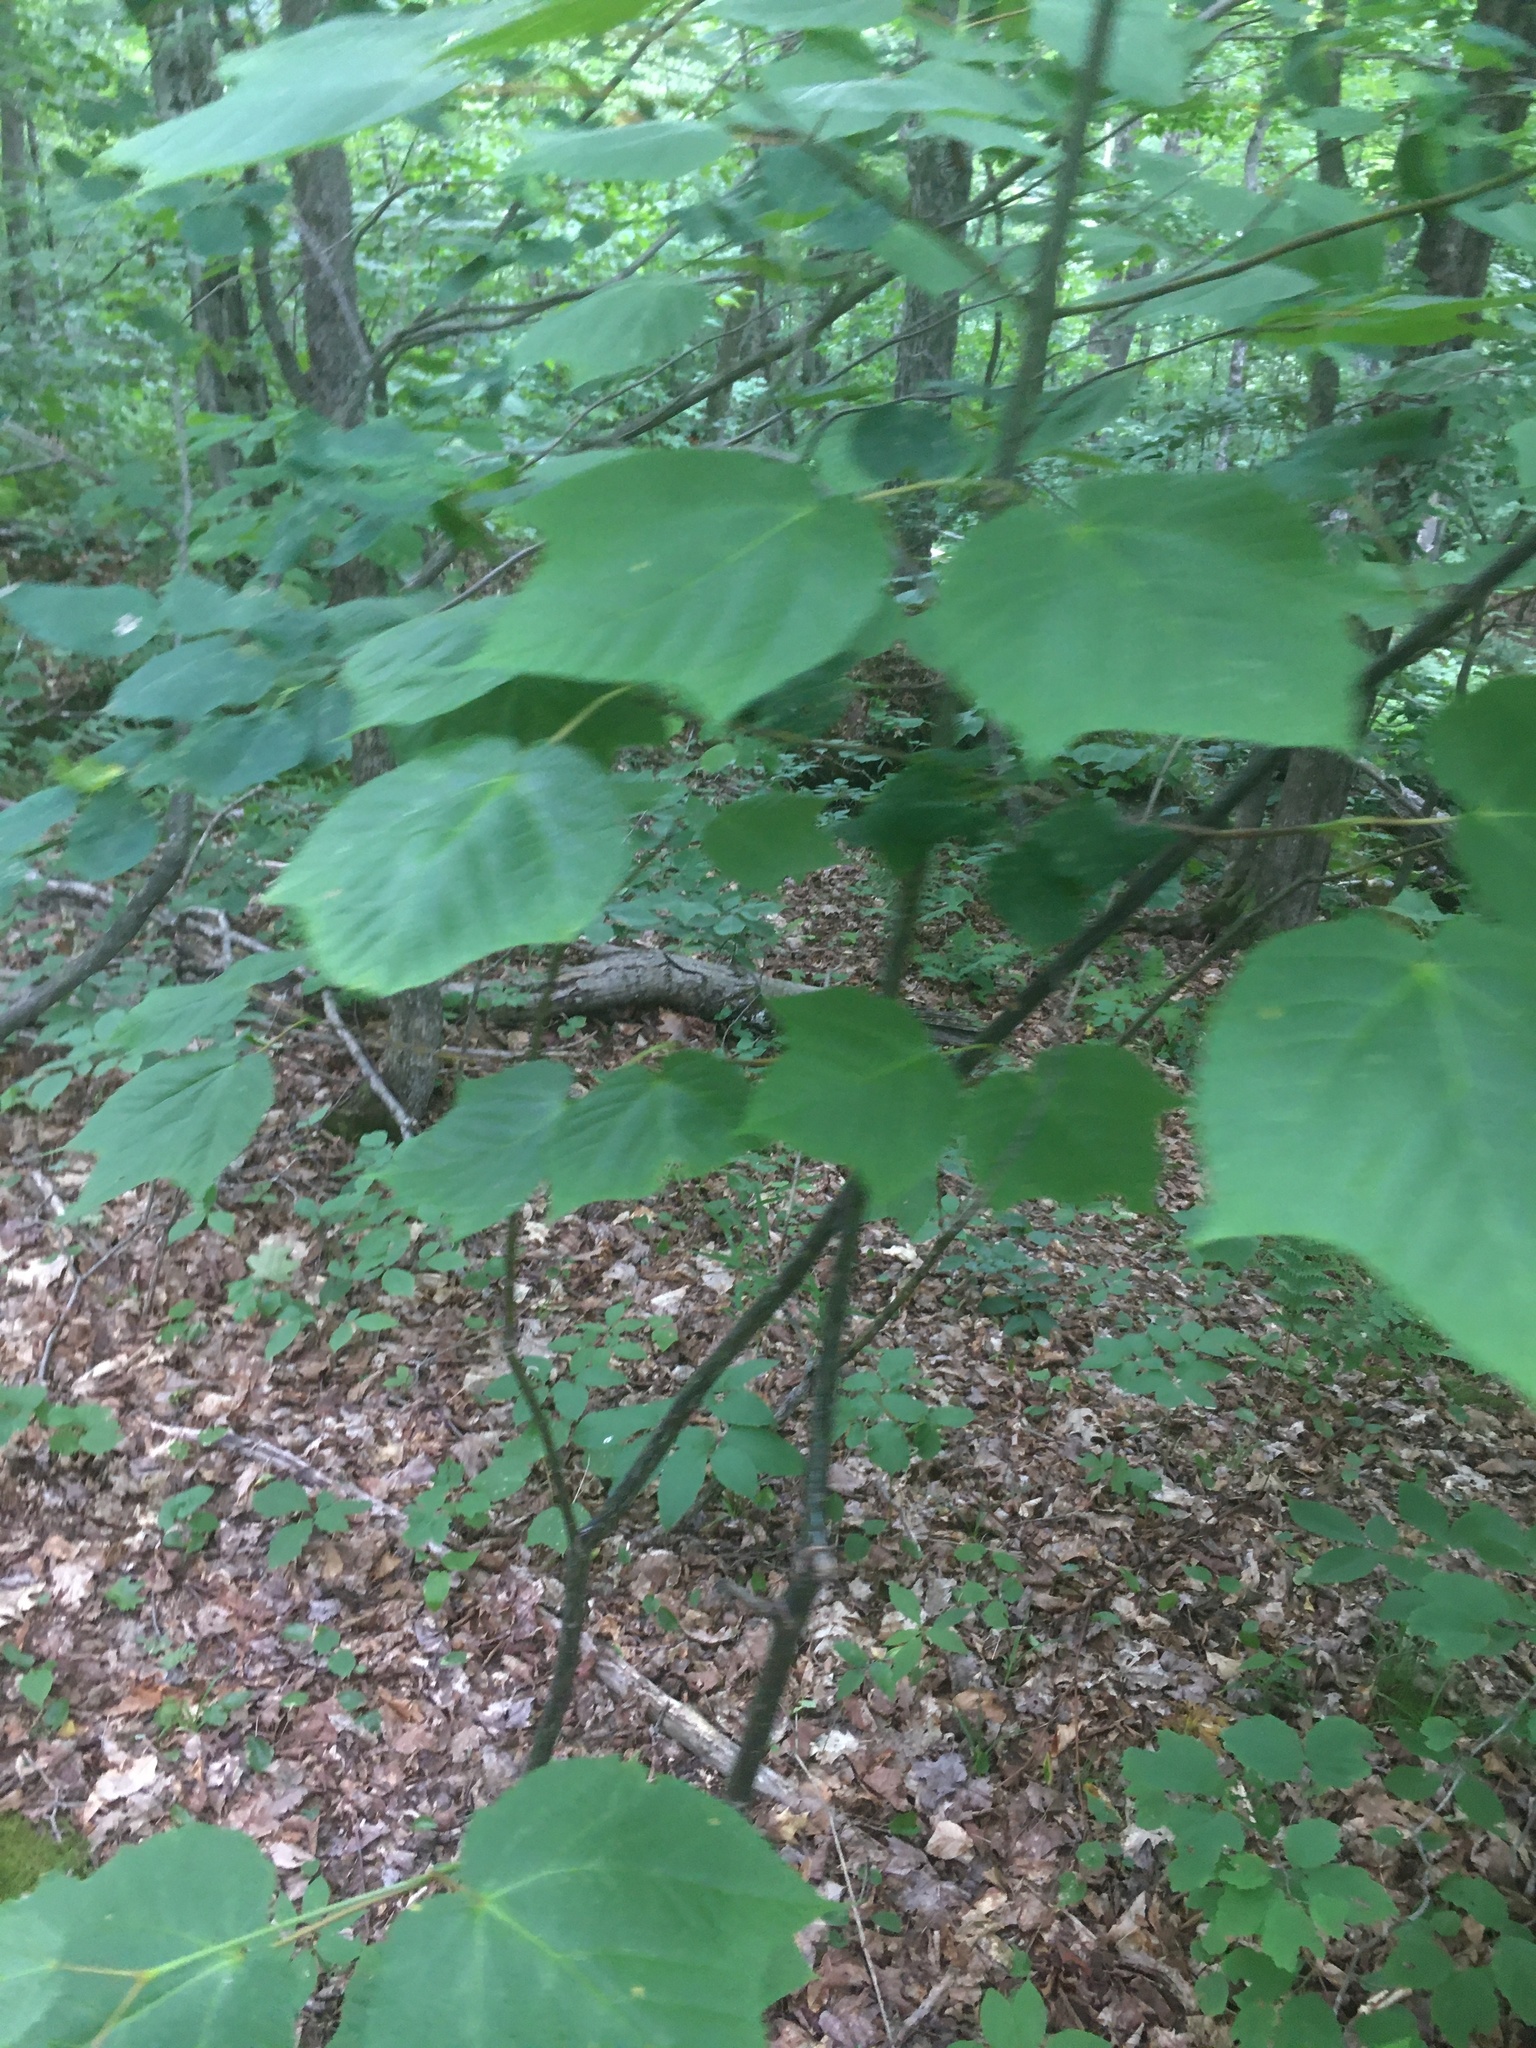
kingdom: Plantae
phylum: Tracheophyta
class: Magnoliopsida
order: Sapindales
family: Sapindaceae
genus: Acer
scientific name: Acer pensylvanicum
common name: Moosewood
